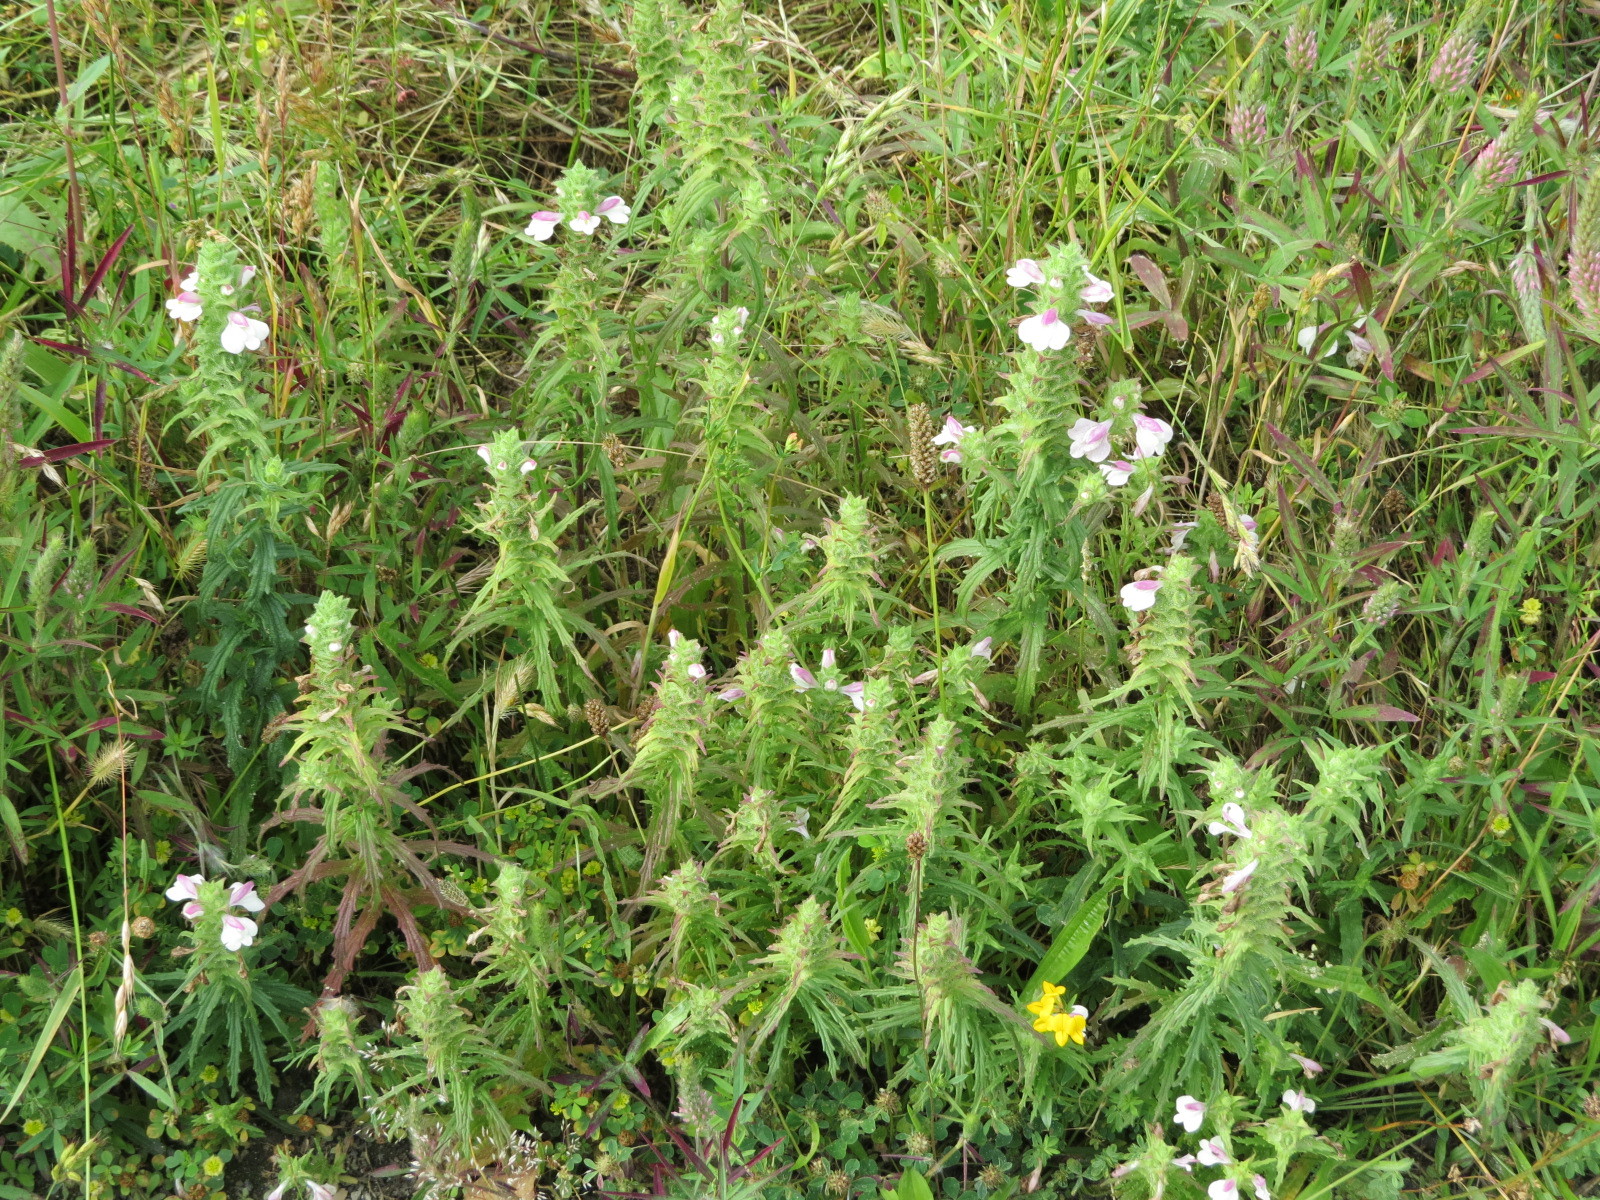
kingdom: Plantae
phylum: Tracheophyta
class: Magnoliopsida
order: Lamiales
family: Orobanchaceae
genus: Bellardia
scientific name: Bellardia trixago
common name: Mediterranean lineseed
